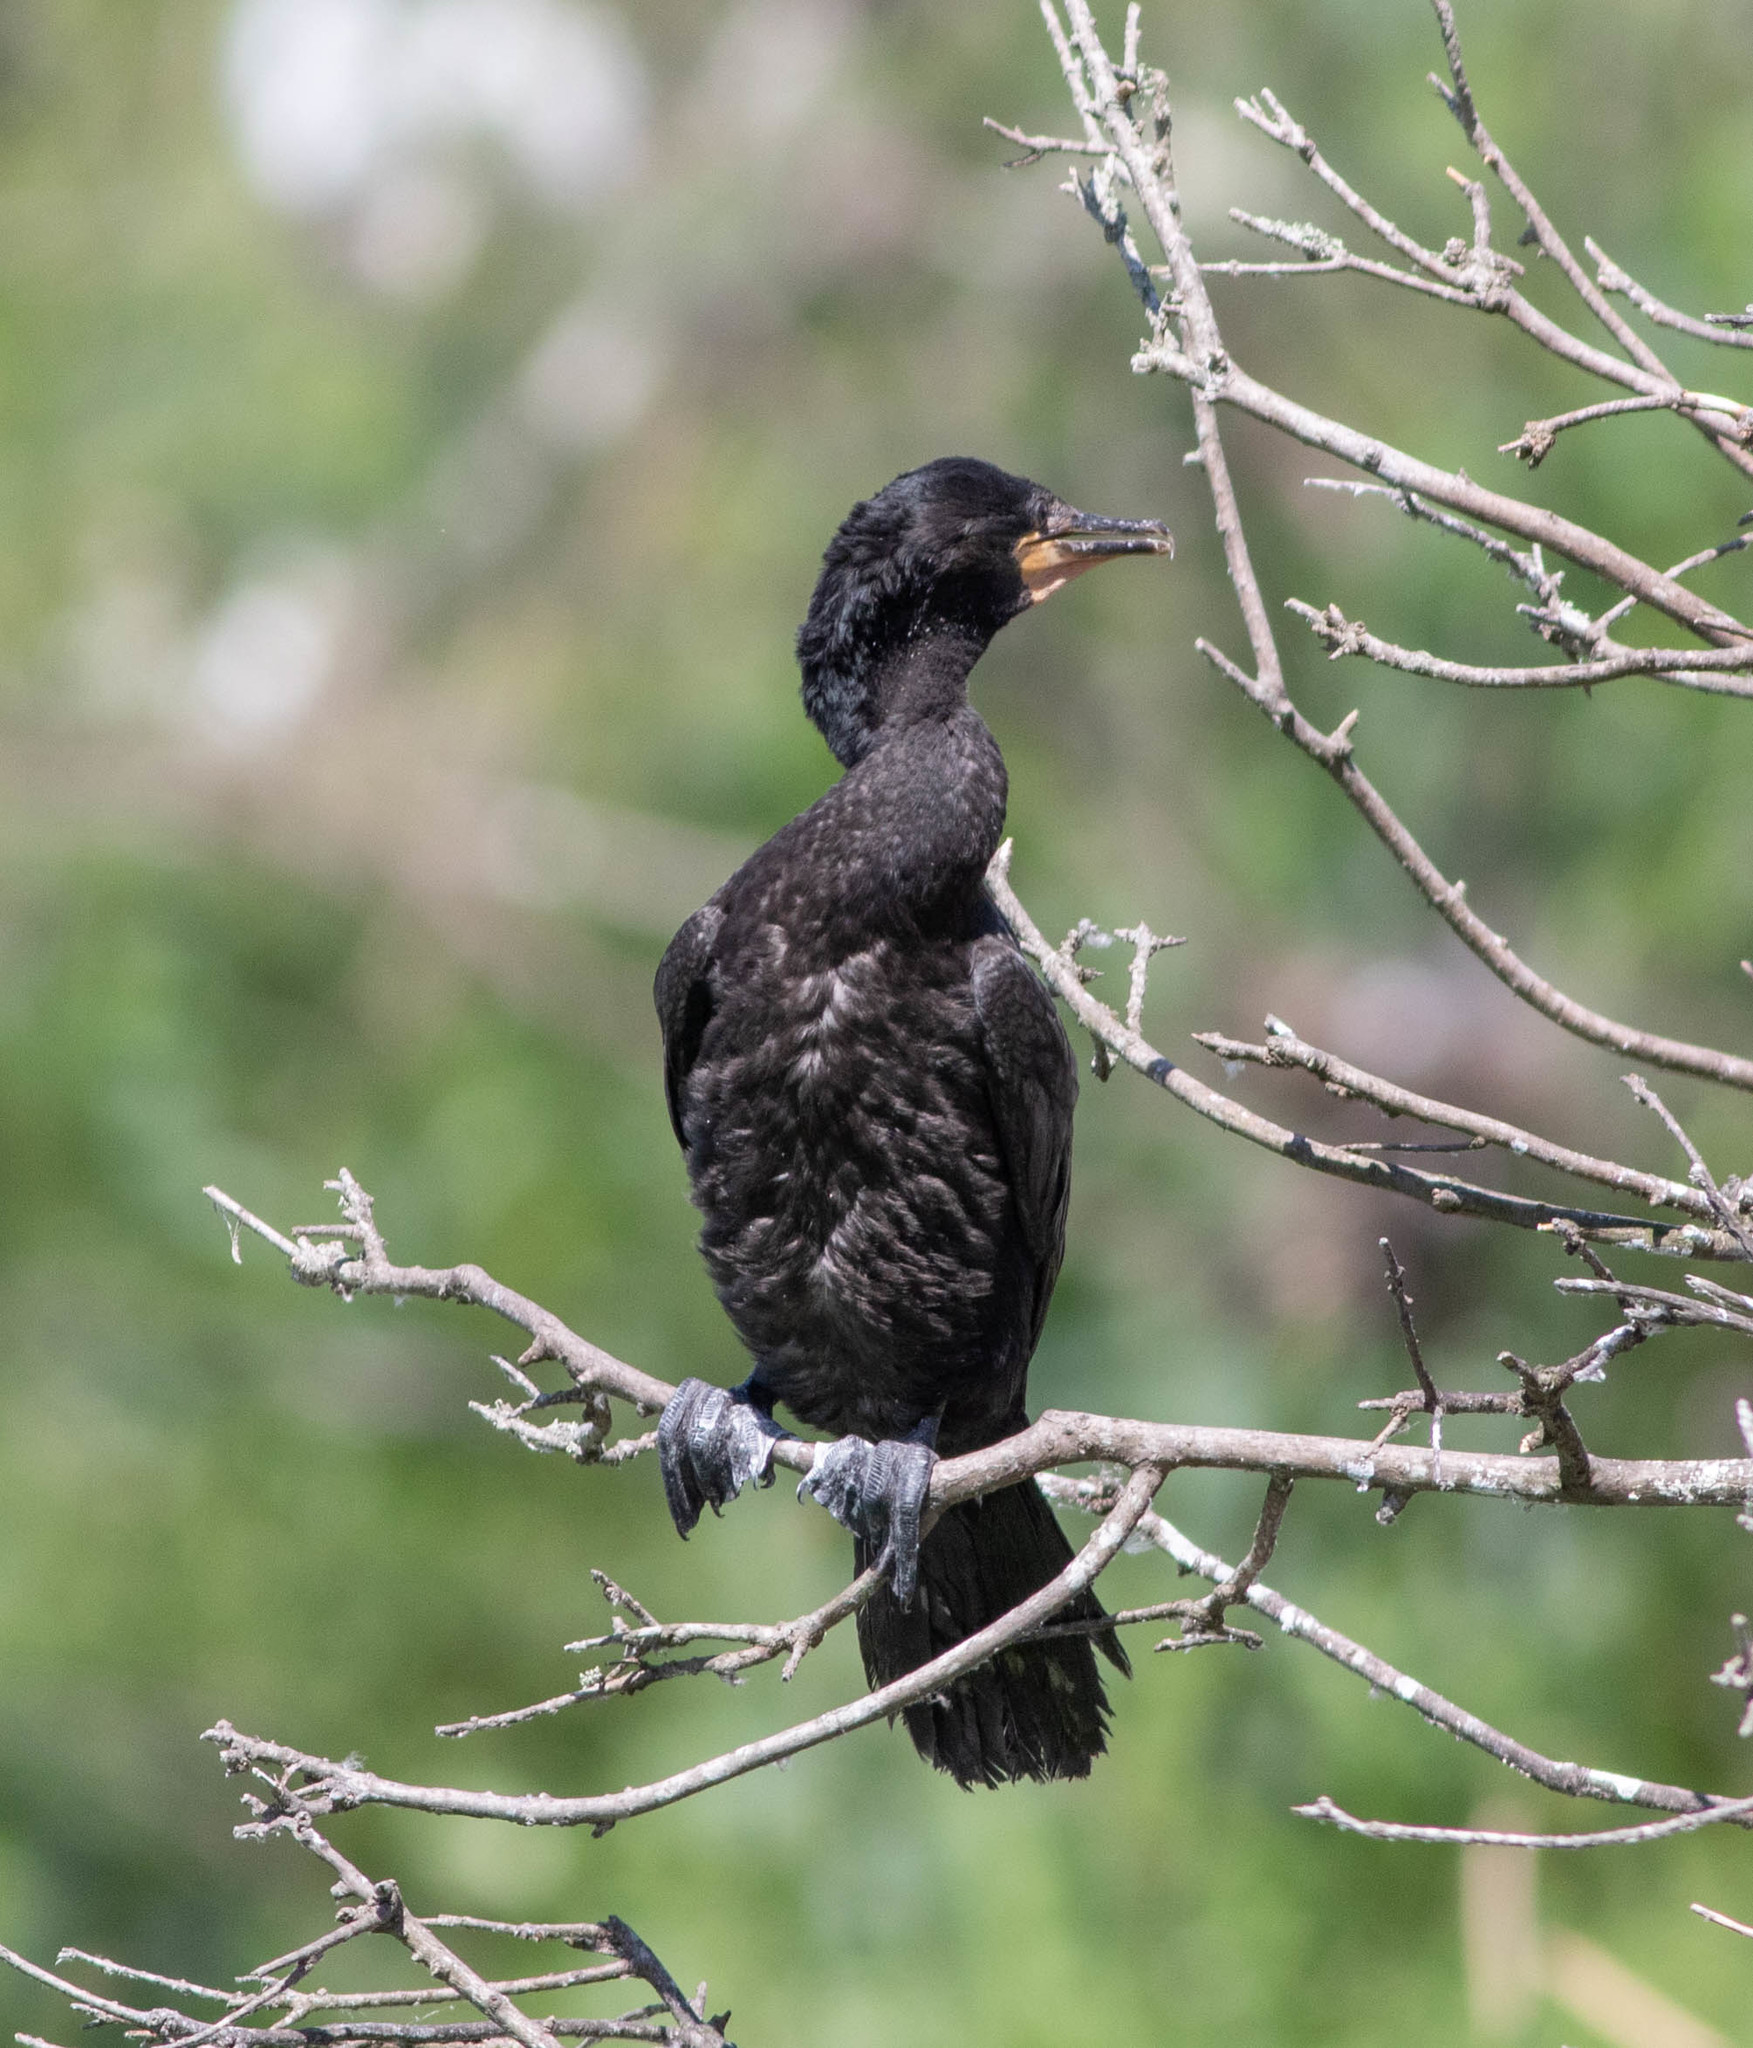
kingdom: Animalia
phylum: Chordata
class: Aves
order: Suliformes
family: Phalacrocoracidae
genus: Phalacrocorax
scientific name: Phalacrocorax auritus
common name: Double-crested cormorant
